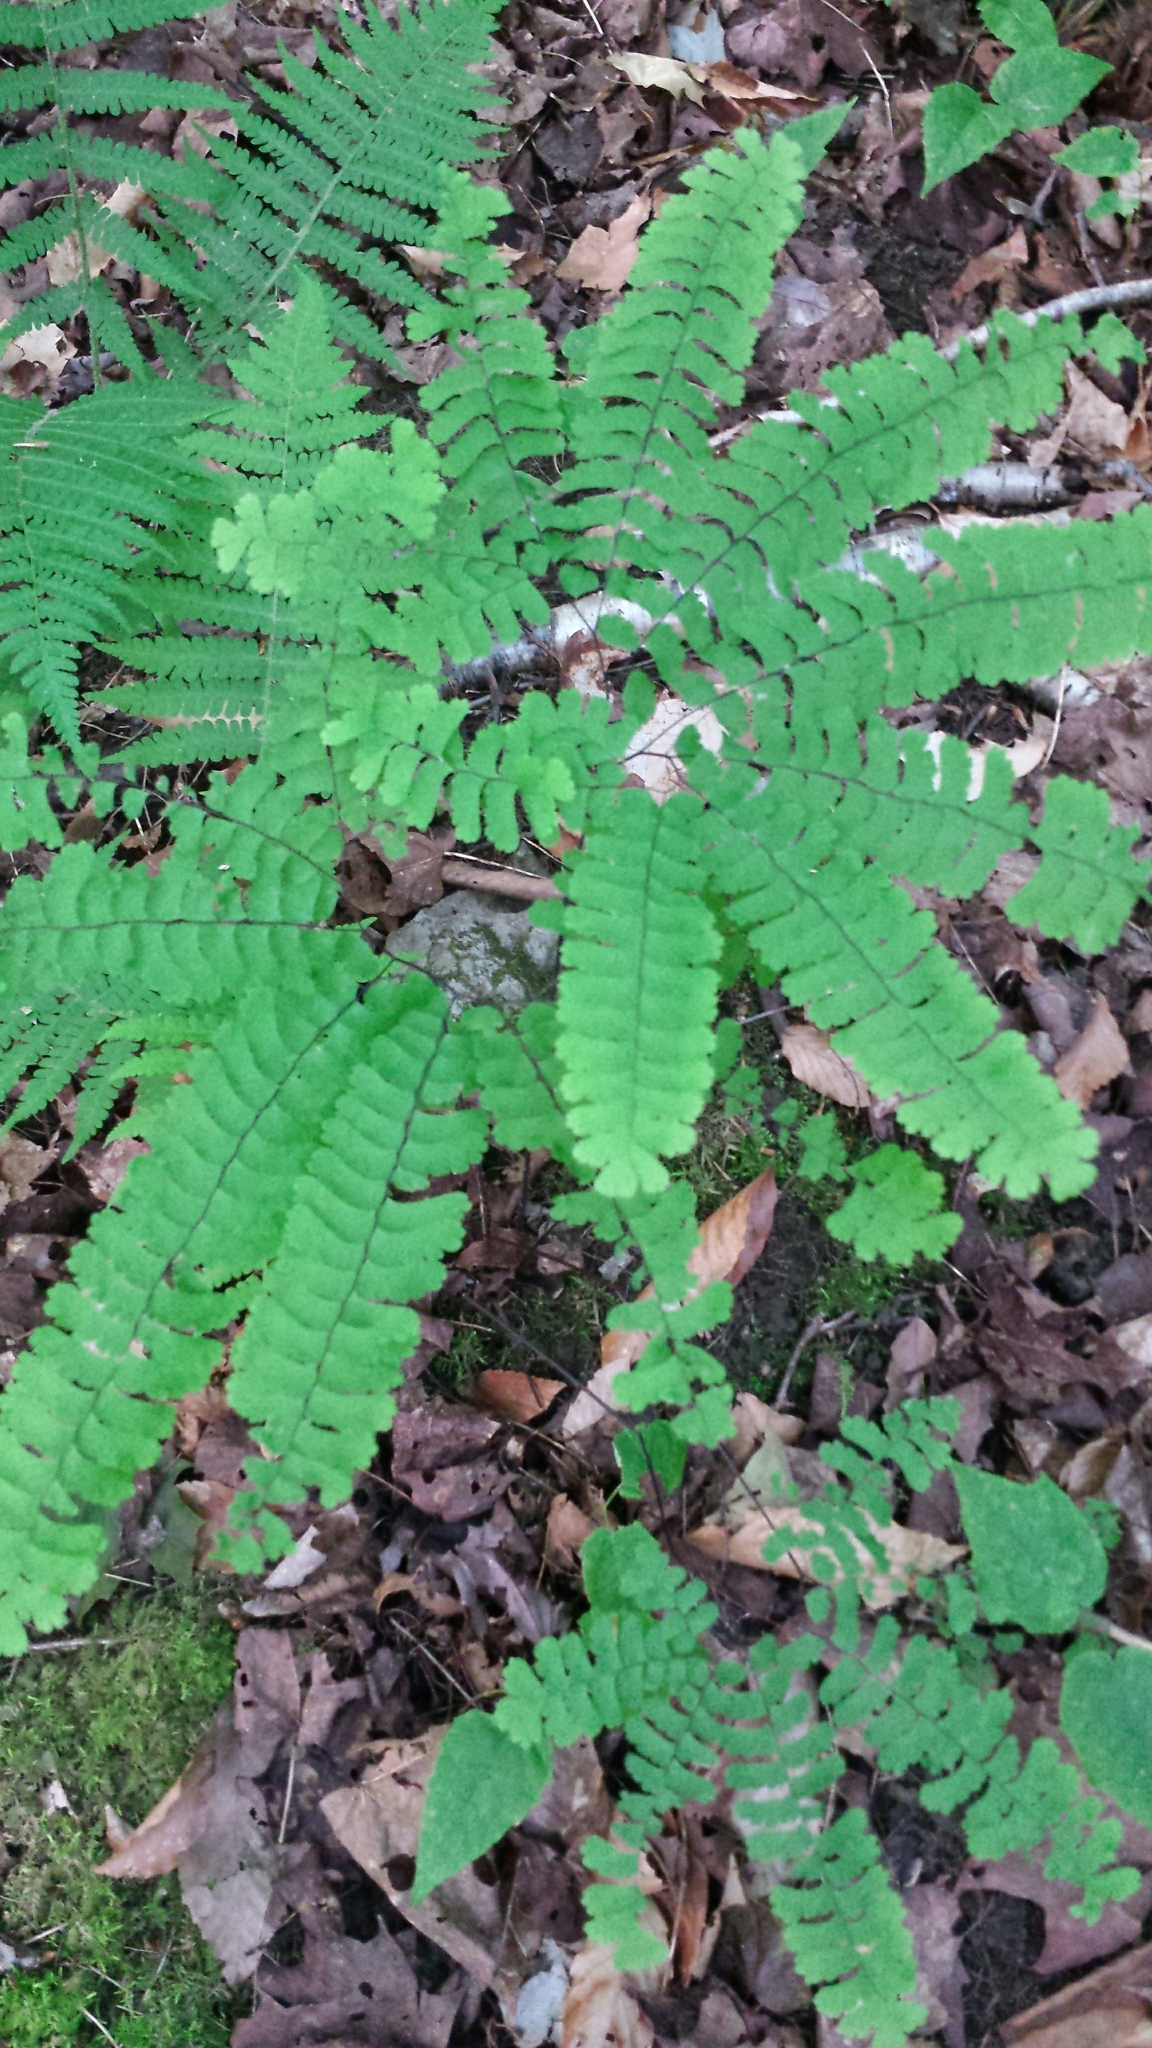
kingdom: Plantae
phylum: Tracheophyta
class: Polypodiopsida
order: Polypodiales
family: Pteridaceae
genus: Adiantum
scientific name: Adiantum pedatum
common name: Five-finger fern
